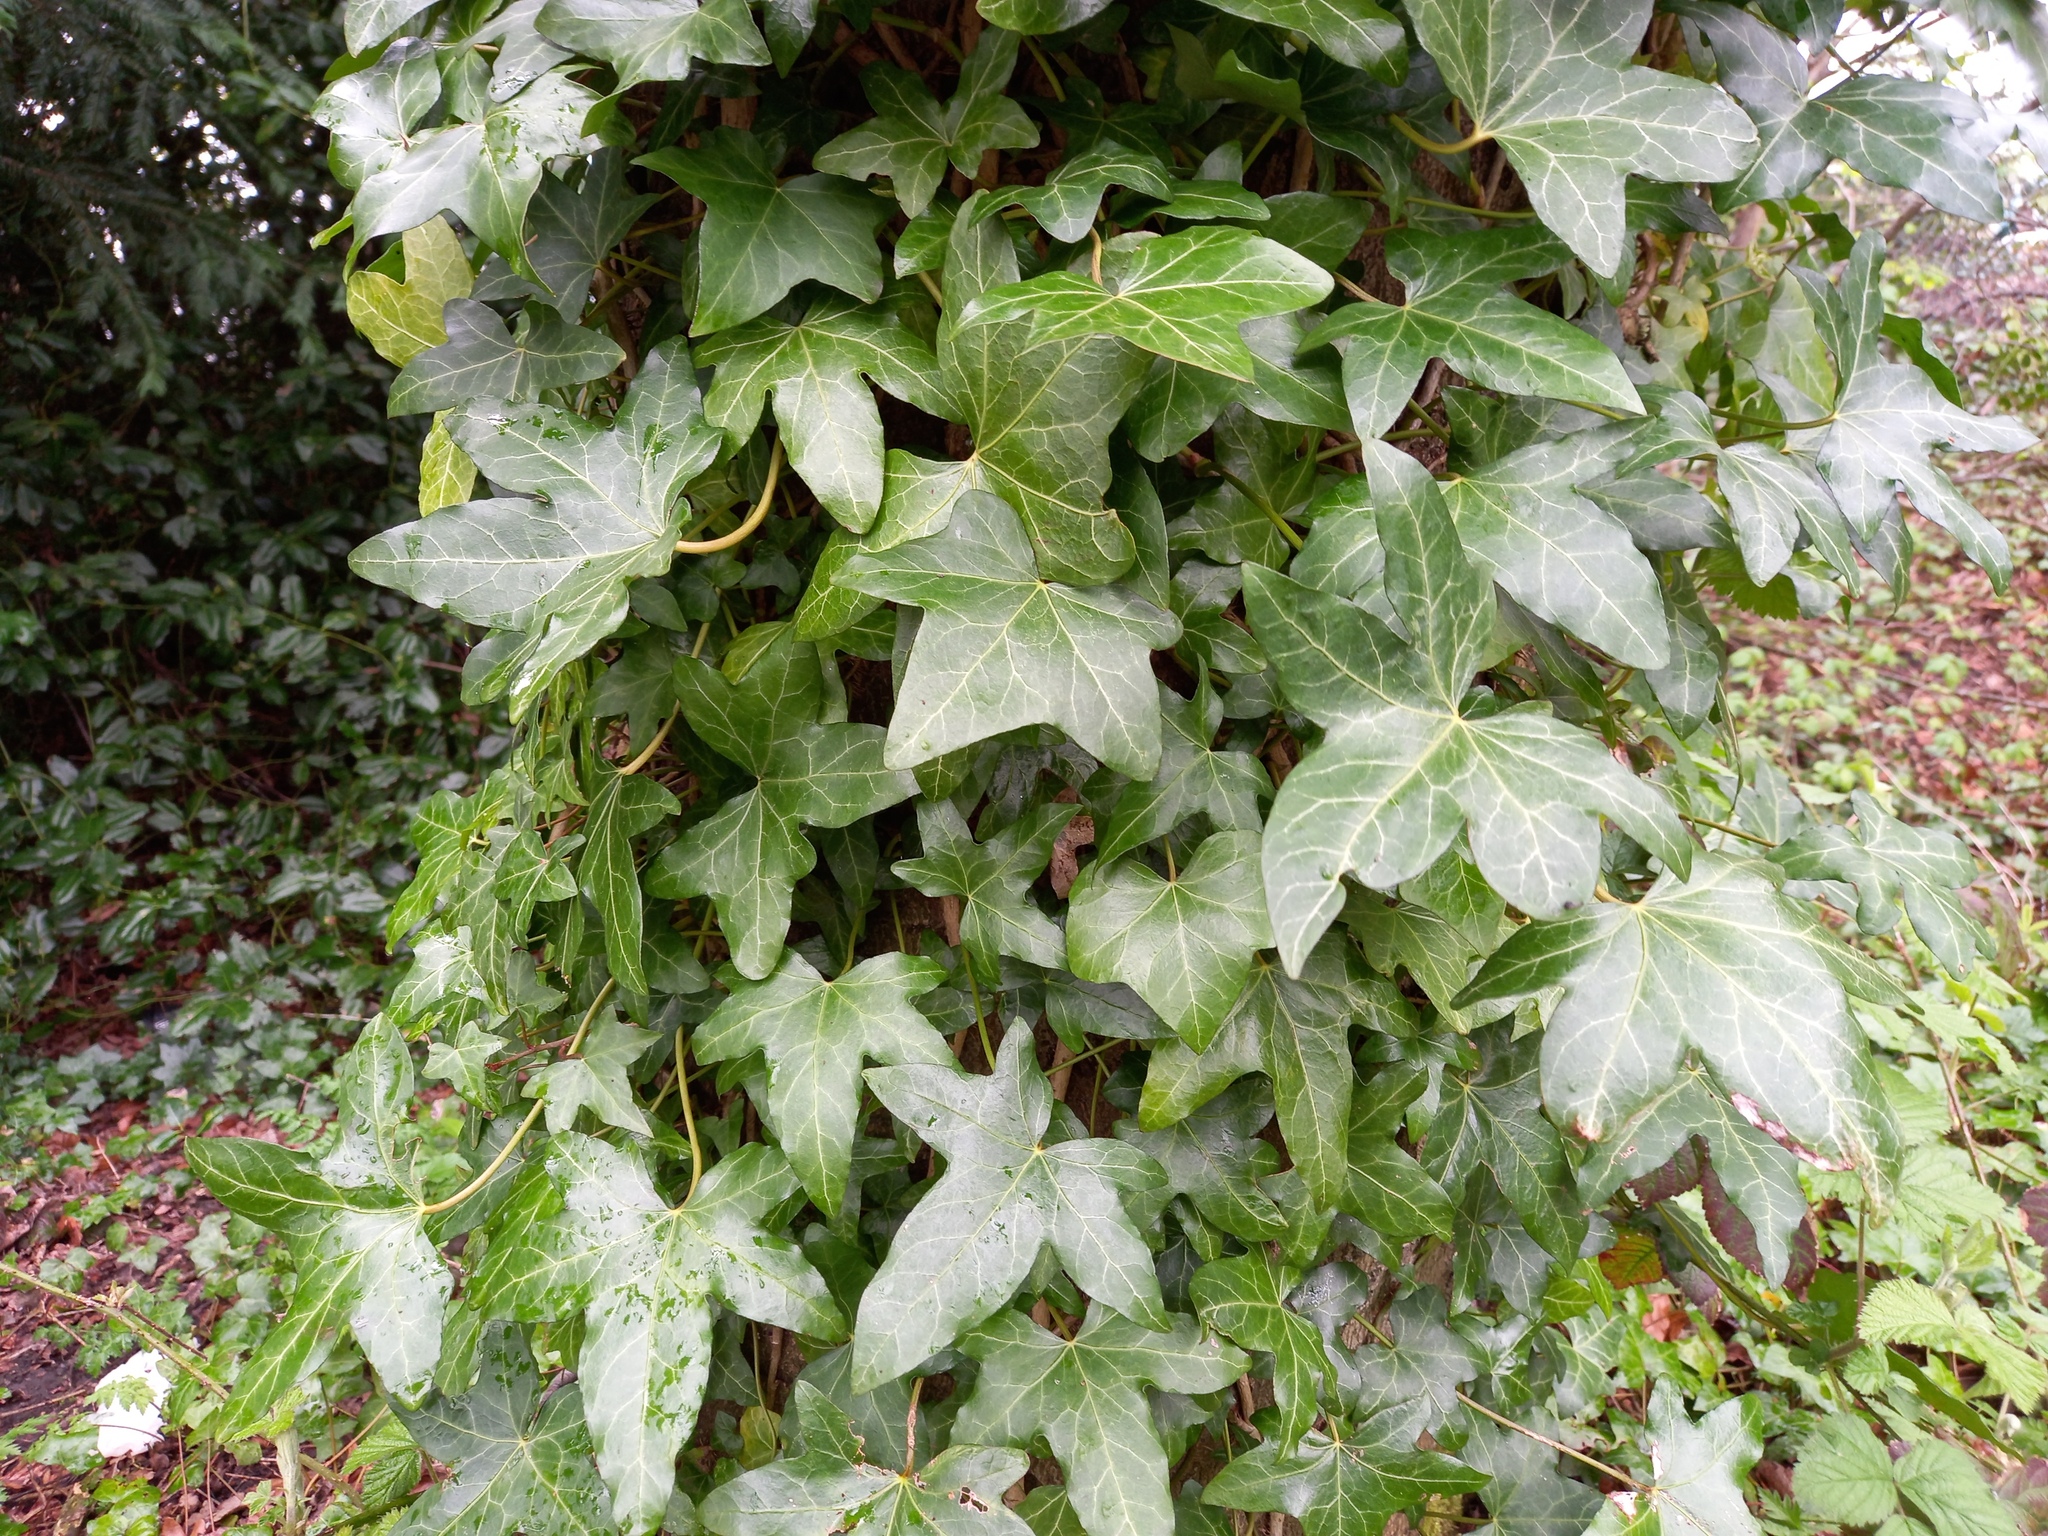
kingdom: Plantae
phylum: Tracheophyta
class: Magnoliopsida
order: Apiales
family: Araliaceae
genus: Hedera
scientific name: Hedera helix
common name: Ivy
